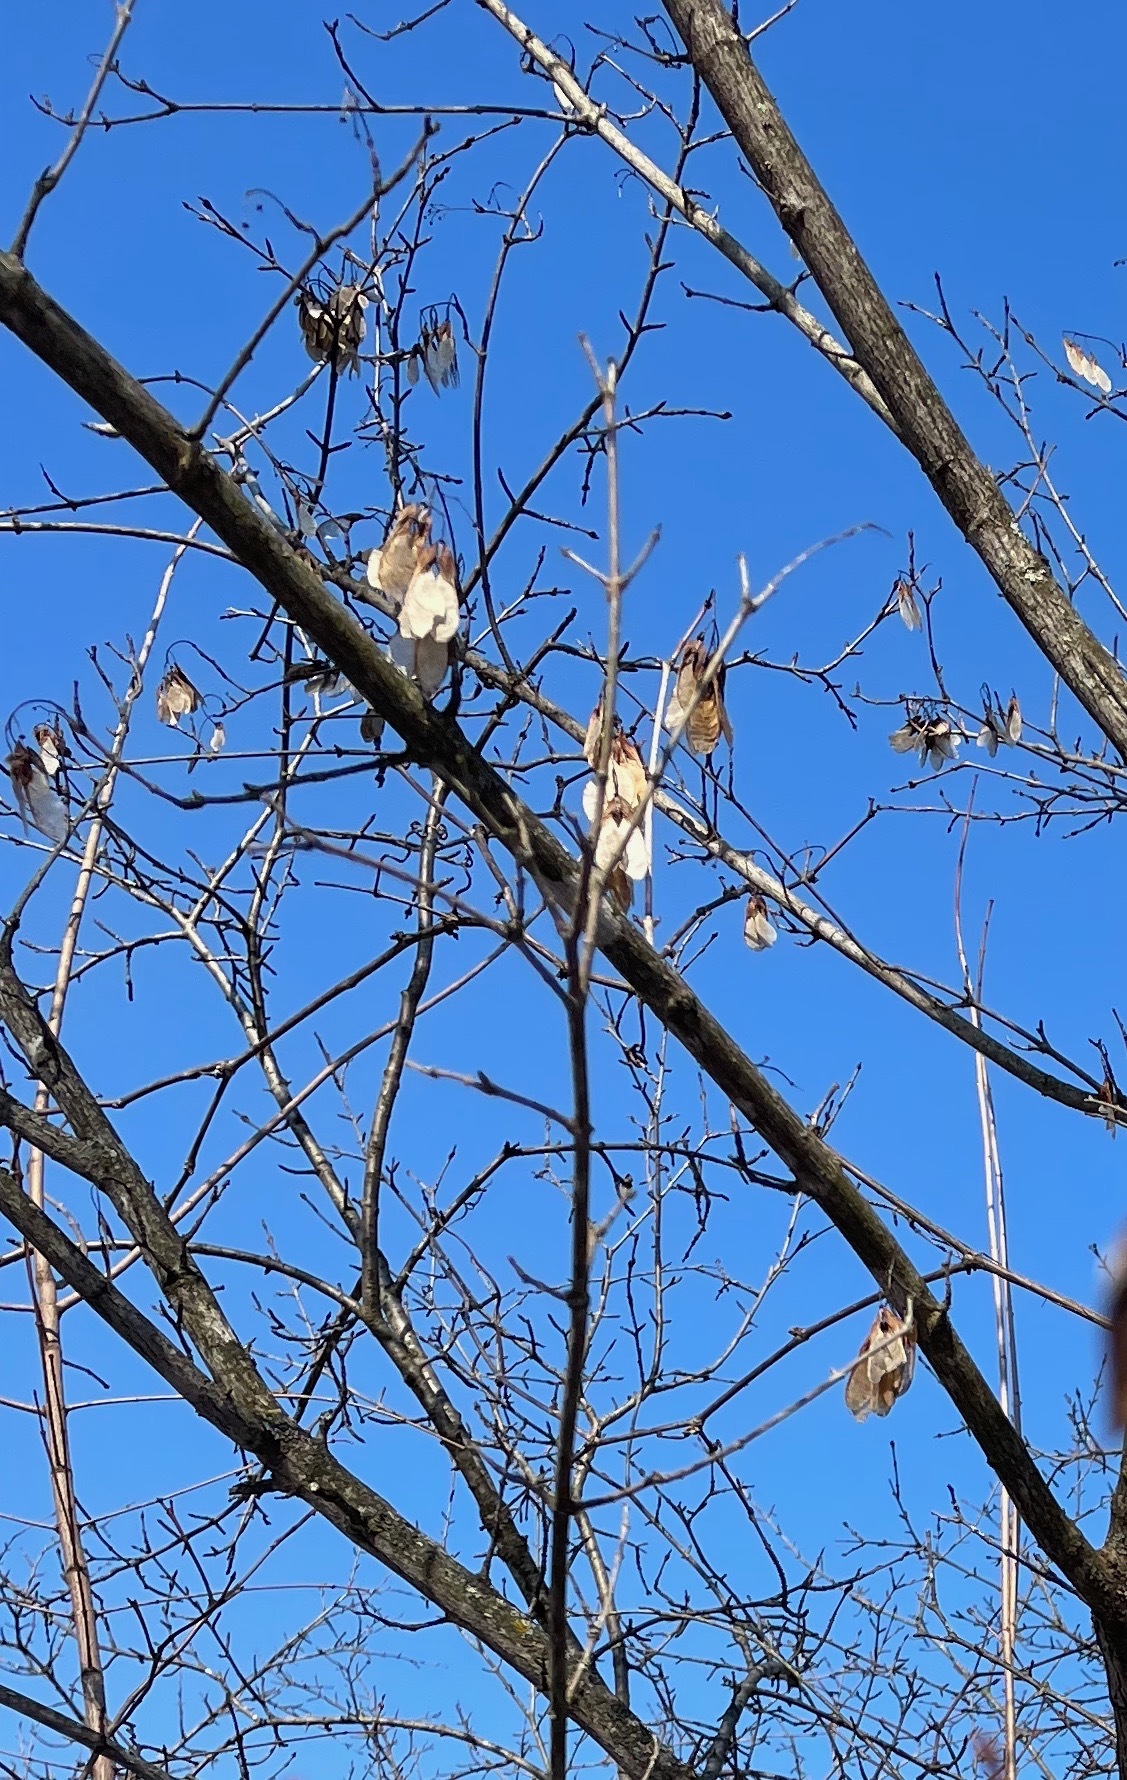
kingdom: Plantae
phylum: Tracheophyta
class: Magnoliopsida
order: Sapindales
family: Sapindaceae
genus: Acer
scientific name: Acer negundo
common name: Ashleaf maple
